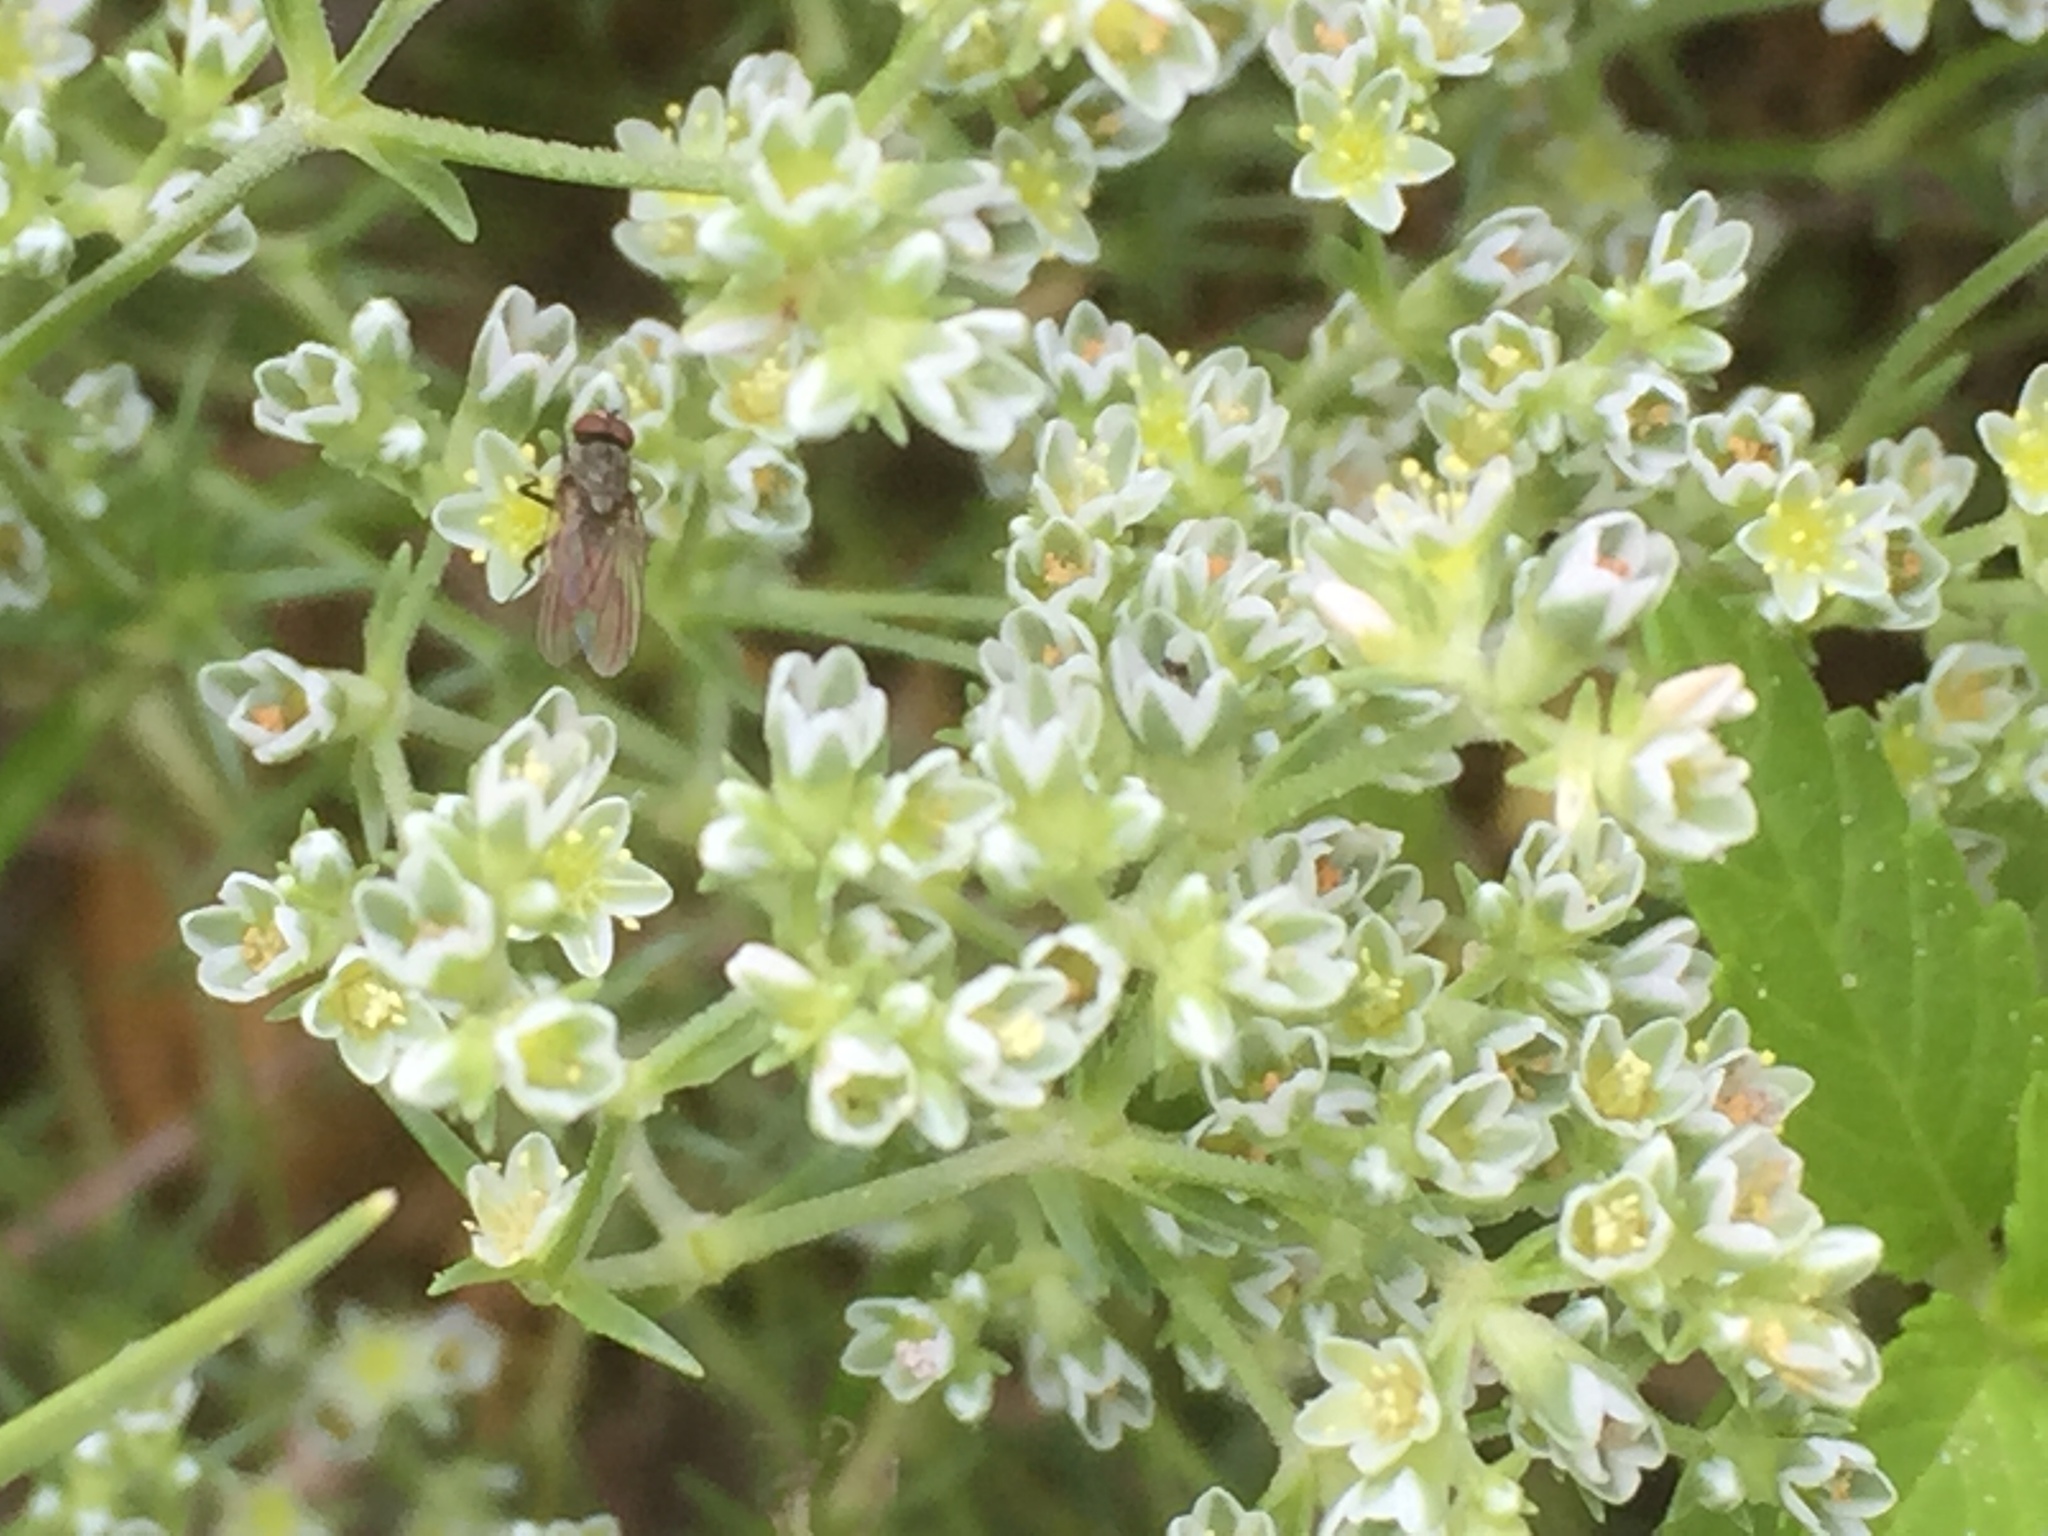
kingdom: Plantae
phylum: Tracheophyta
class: Magnoliopsida
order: Caryophyllales
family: Caryophyllaceae
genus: Scleranthus
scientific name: Scleranthus perennis
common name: Perennial knawel
